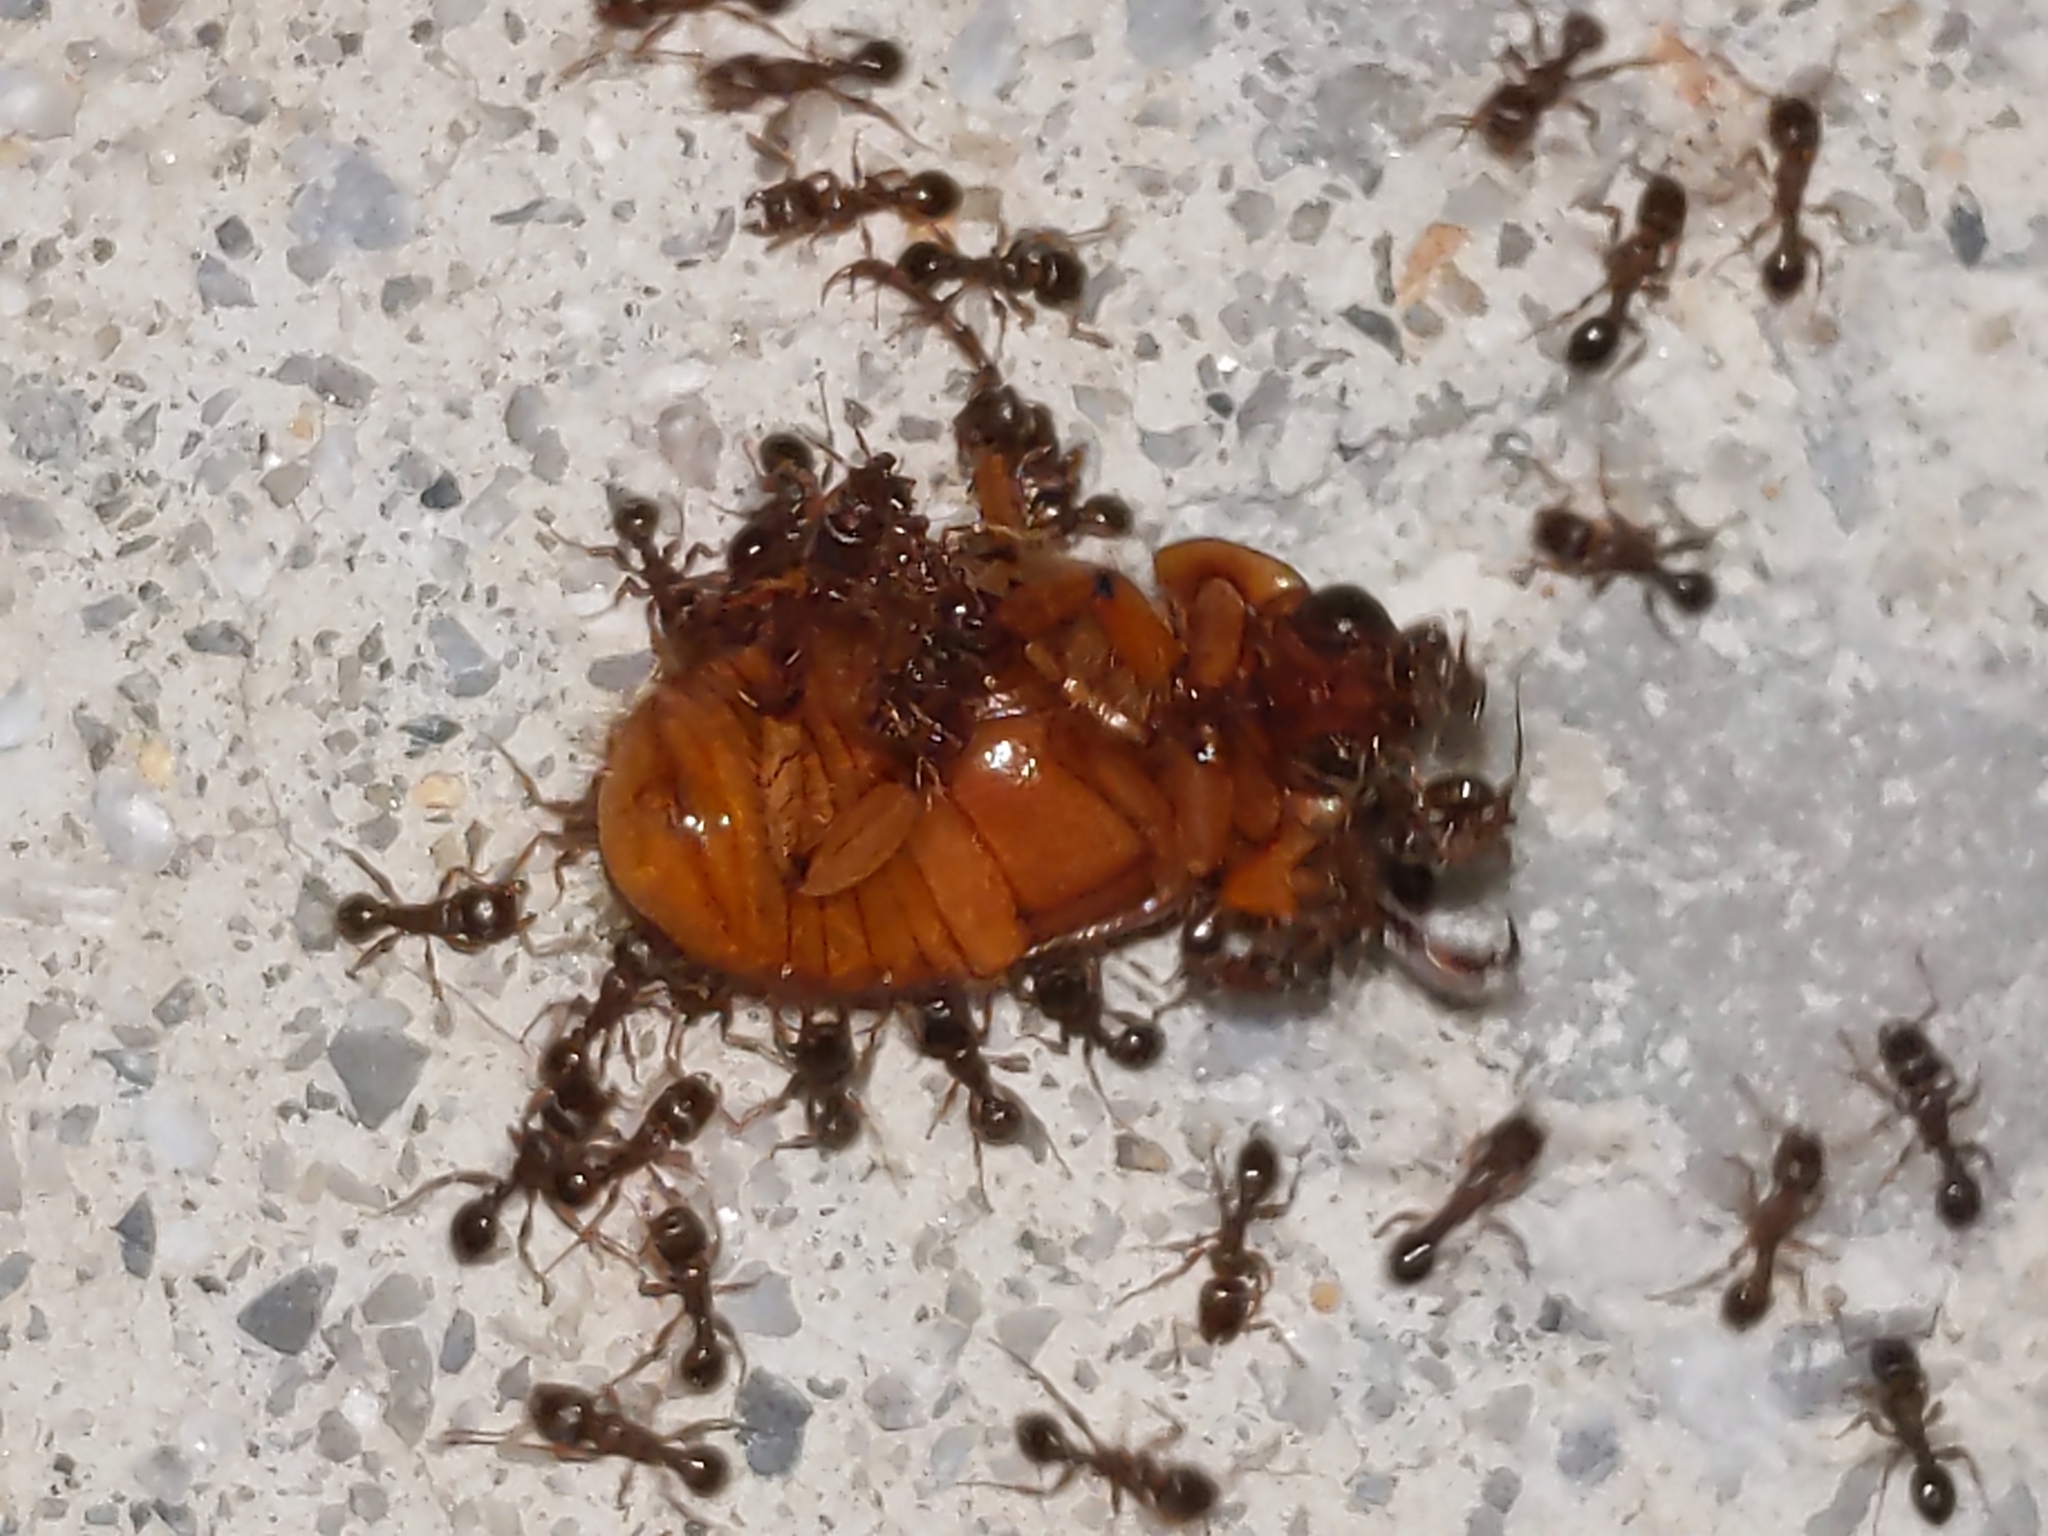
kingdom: Animalia
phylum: Arthropoda
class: Insecta
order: Hymenoptera
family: Formicidae
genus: Tetramorium
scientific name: Tetramorium immigrans
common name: Pavement ant
